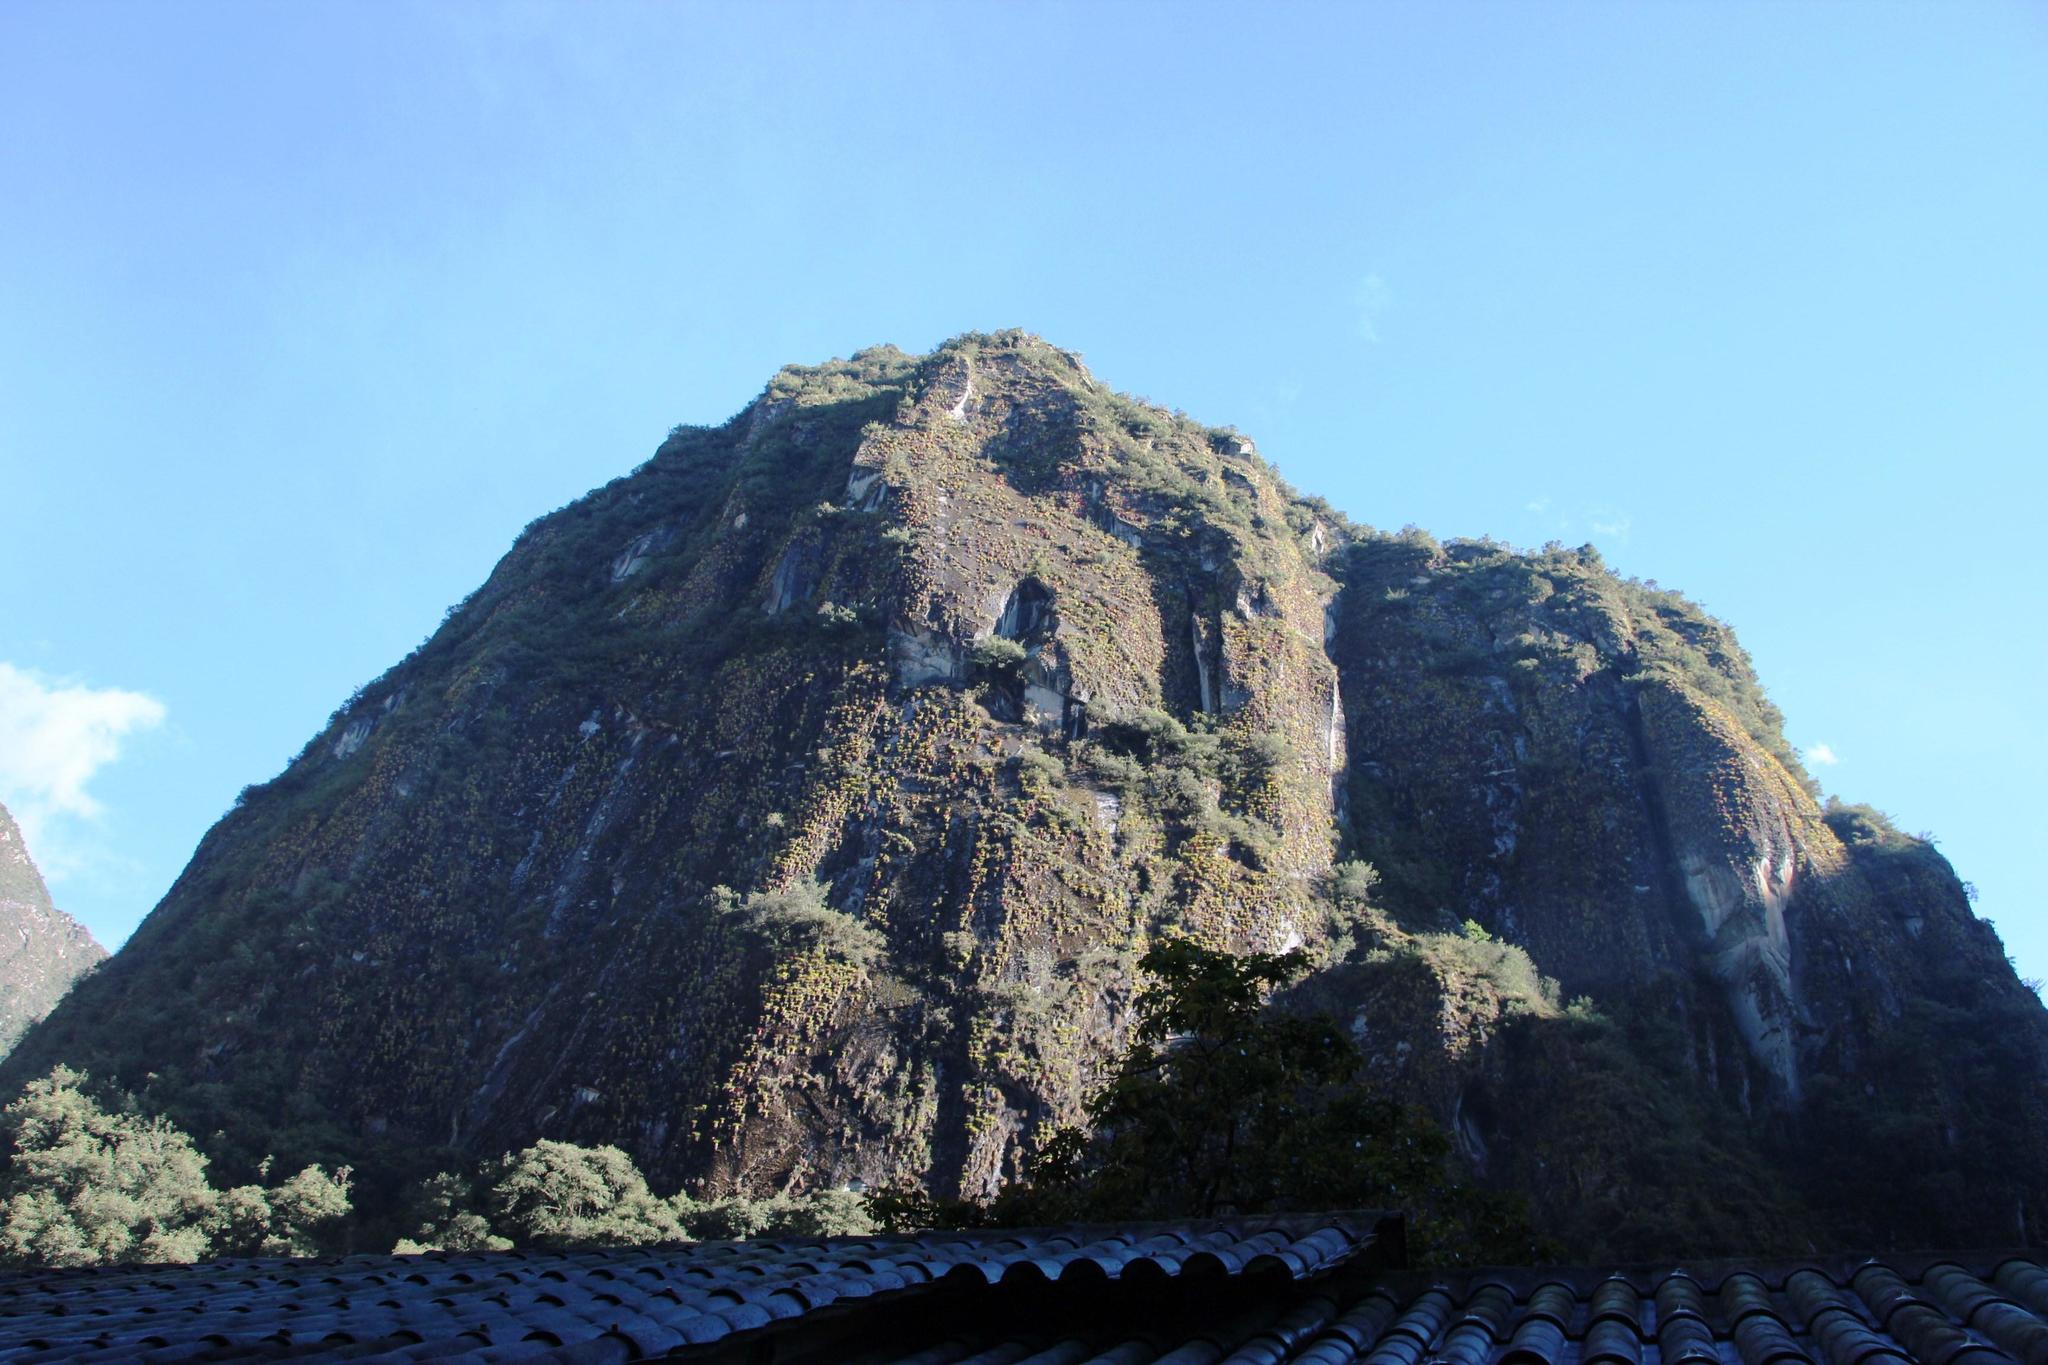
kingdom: Plantae
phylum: Tracheophyta
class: Liliopsida
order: Poales
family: Bromeliaceae
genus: Tillandsia
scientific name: Tillandsia machupicchuensis
